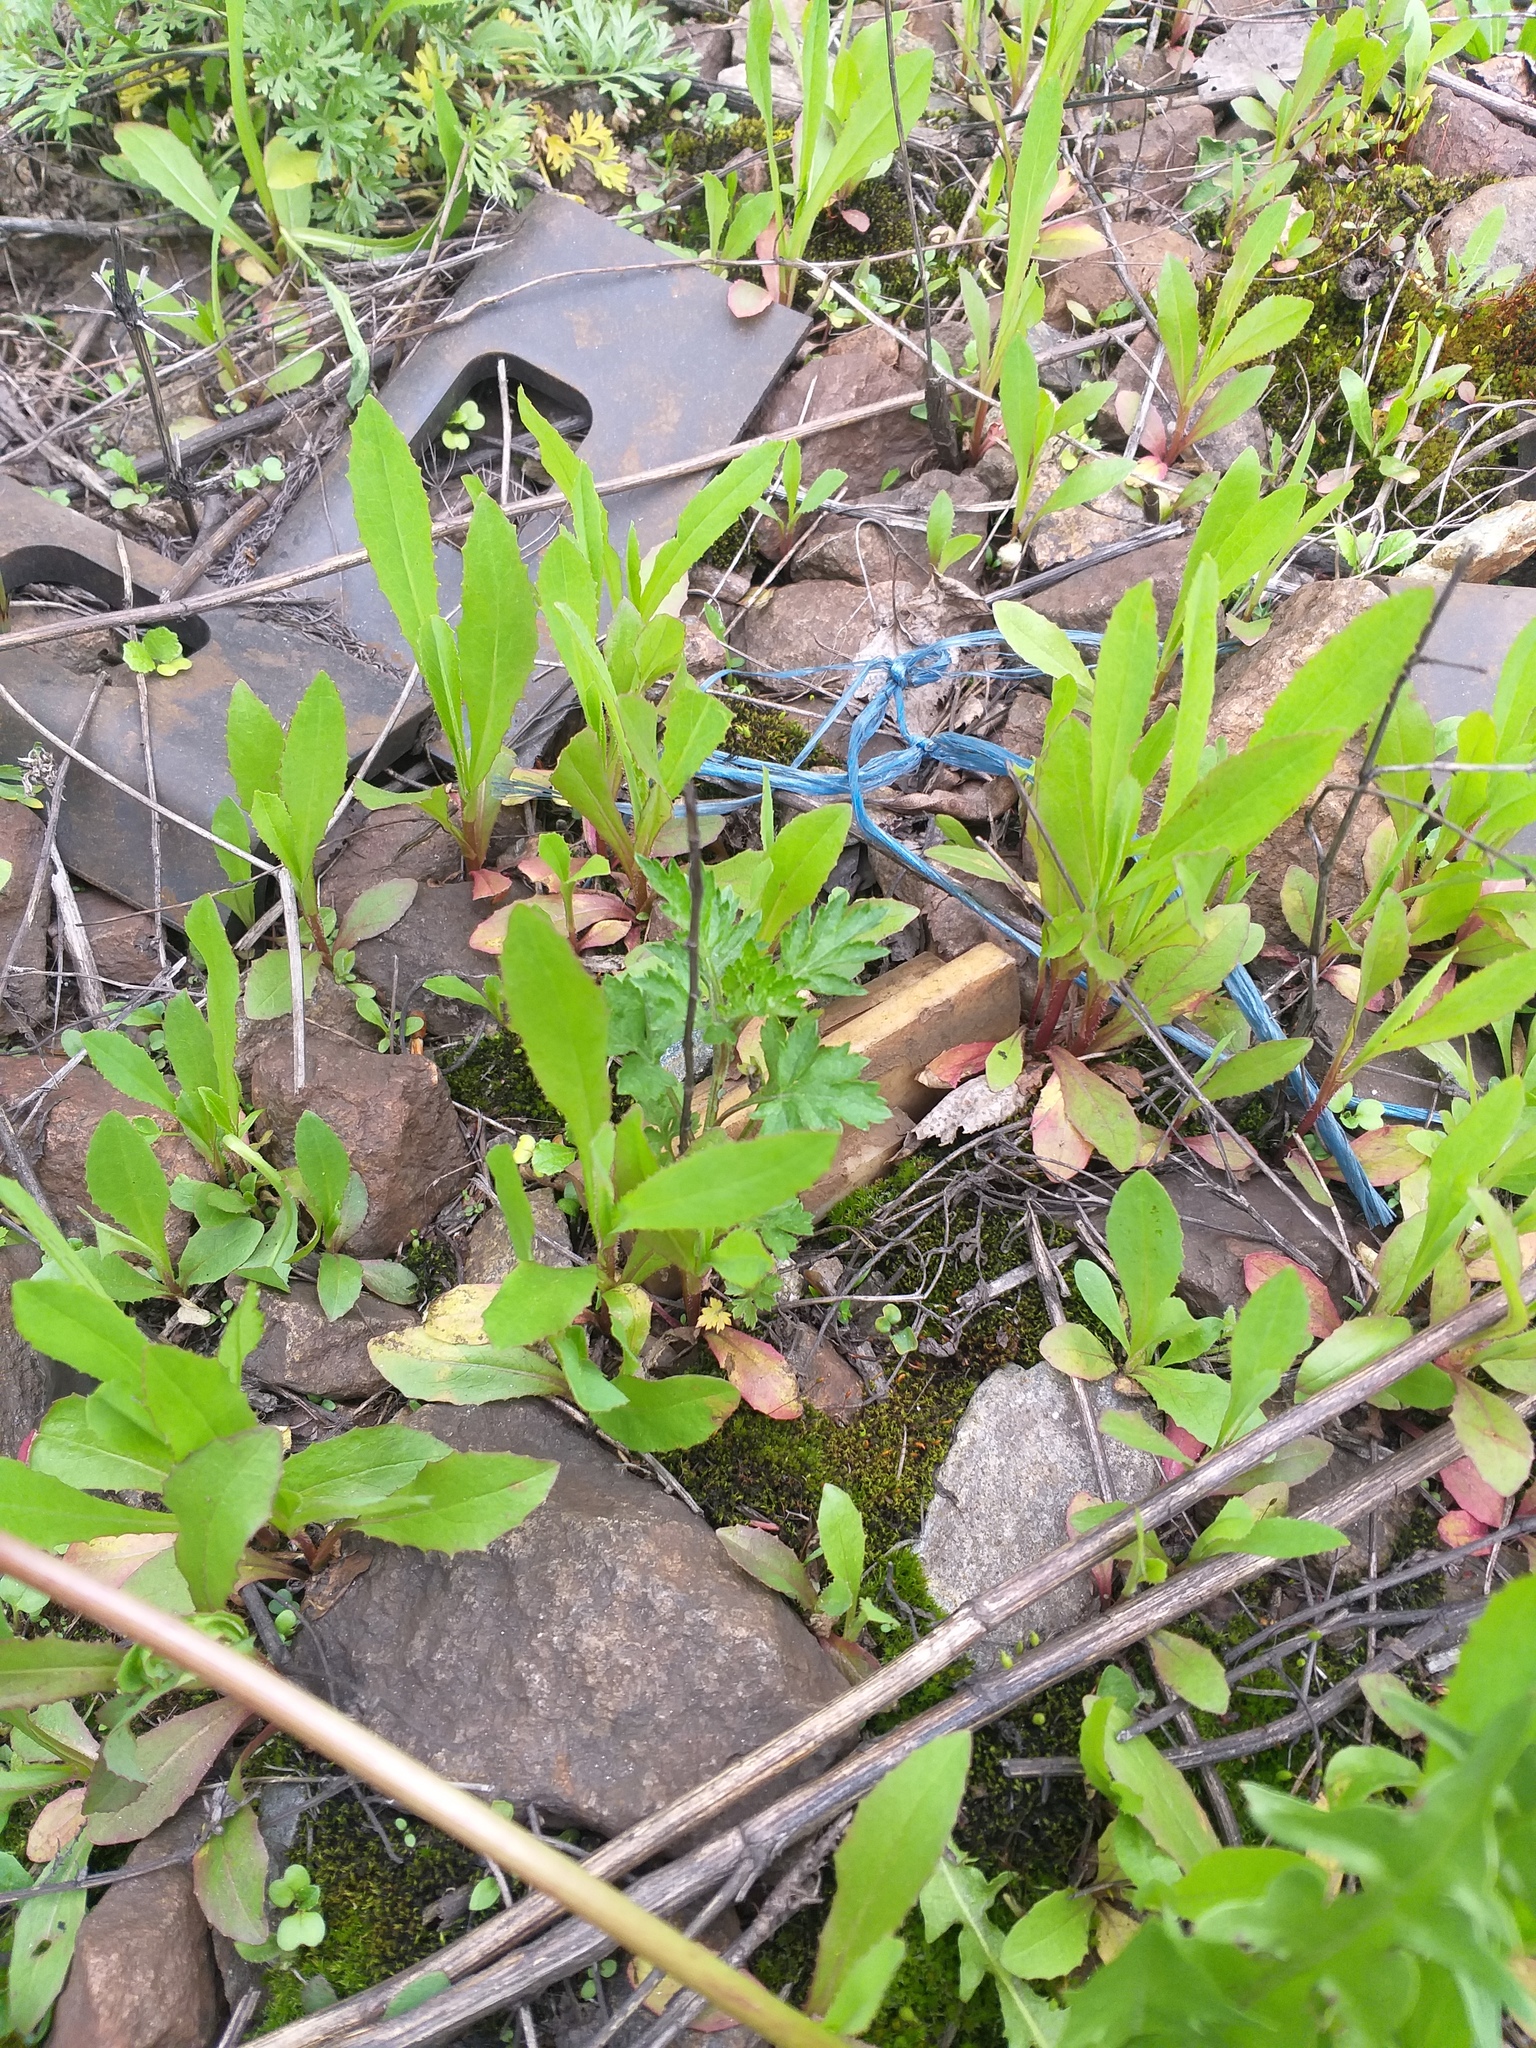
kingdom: Plantae
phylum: Tracheophyta
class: Magnoliopsida
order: Asterales
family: Asteraceae
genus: Lactuca
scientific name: Lactuca serriola
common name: Prickly lettuce
